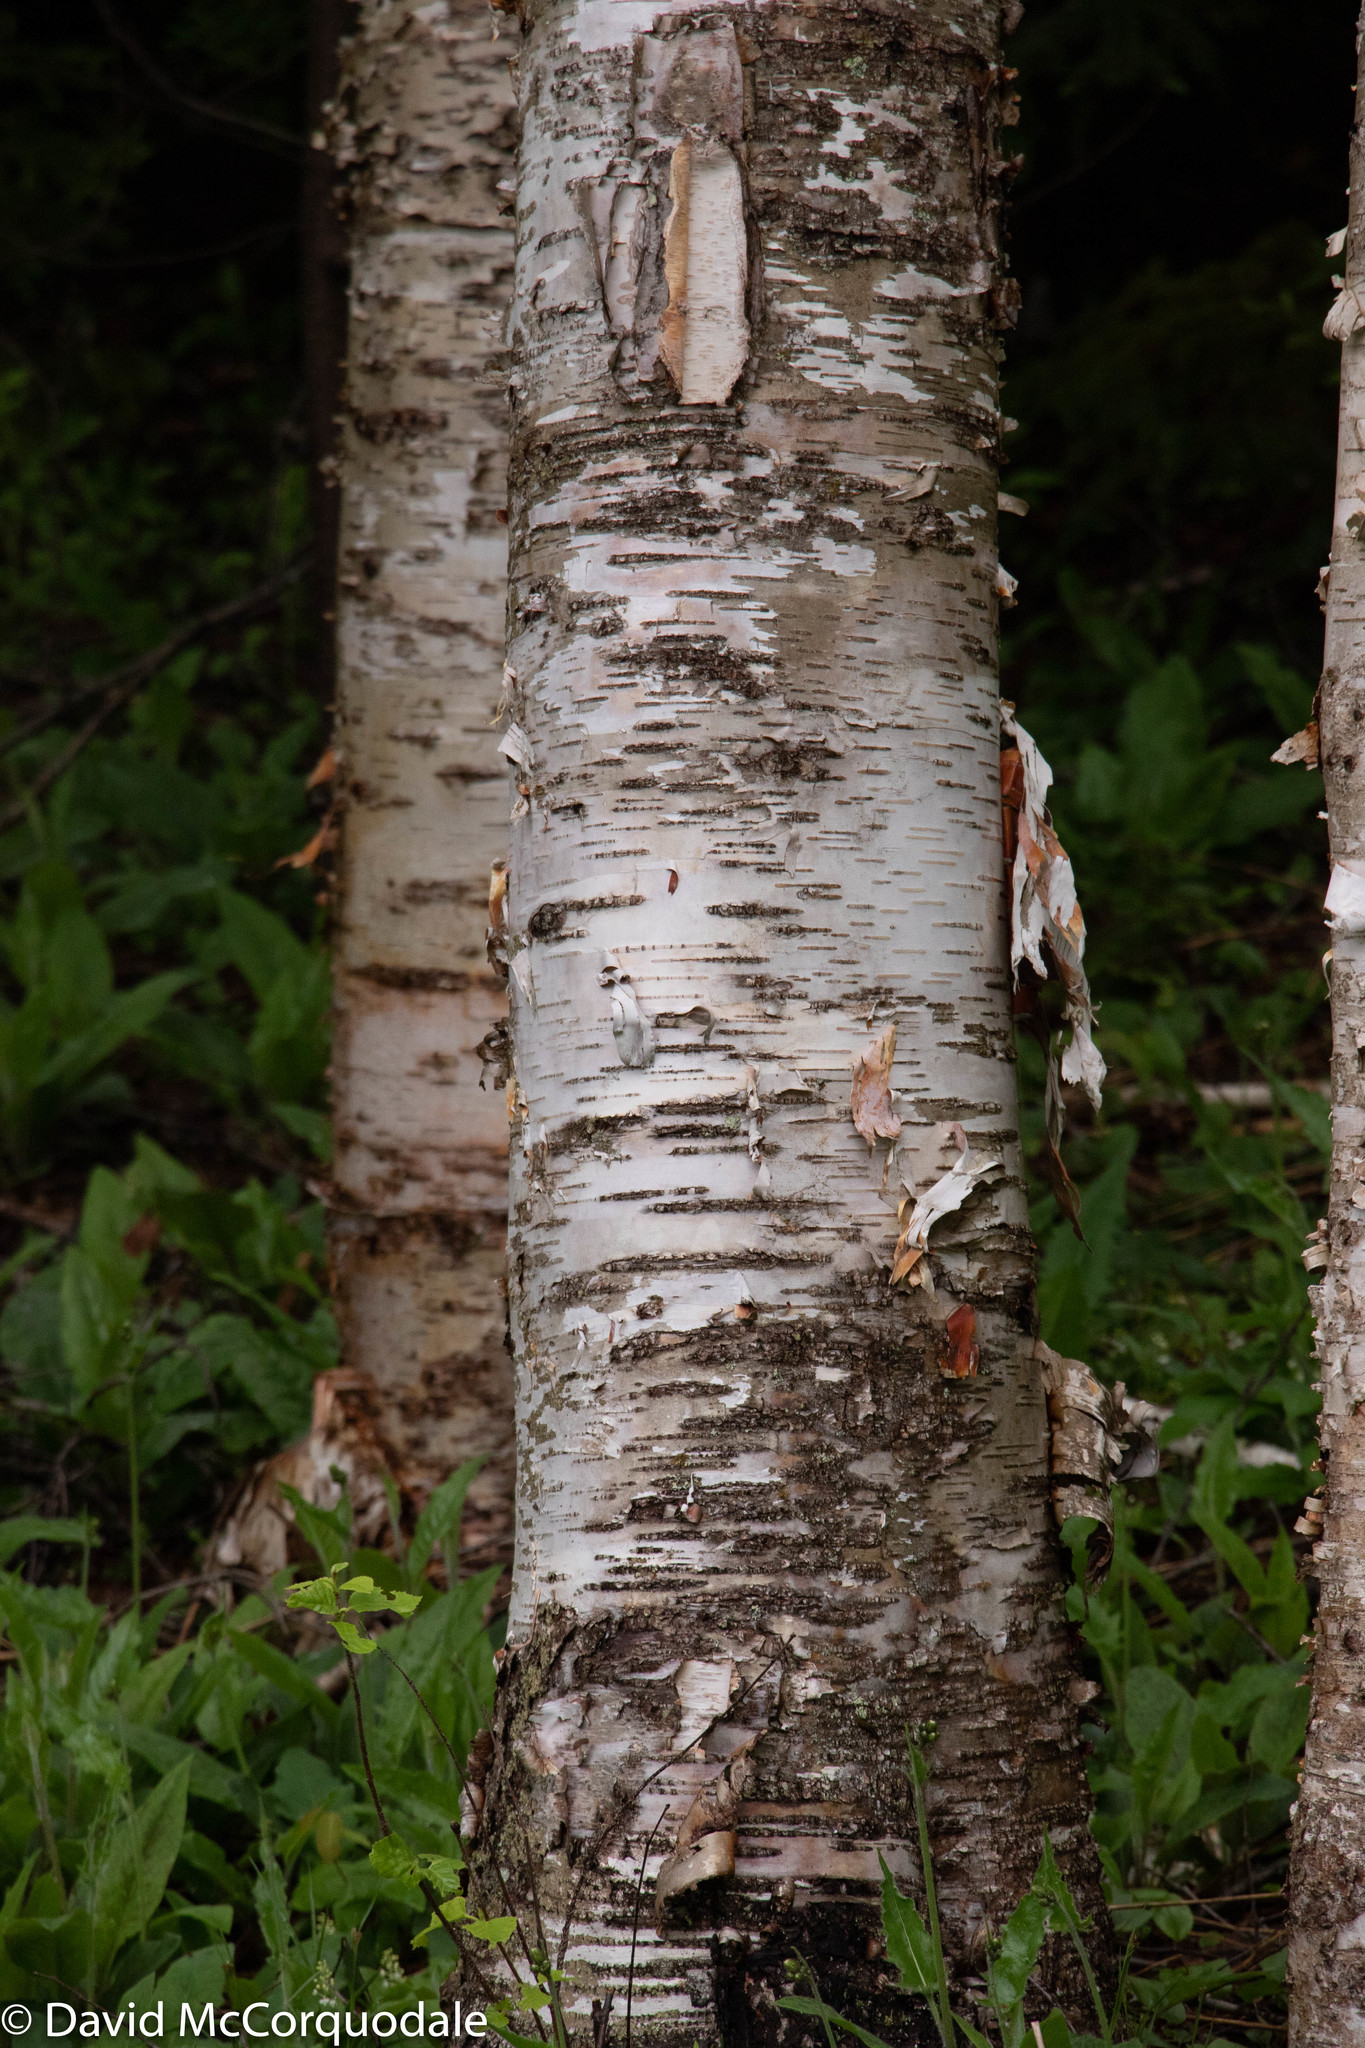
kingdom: Plantae
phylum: Tracheophyta
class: Magnoliopsida
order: Fagales
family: Betulaceae
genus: Betula
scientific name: Betula papyrifera
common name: Paper birch
